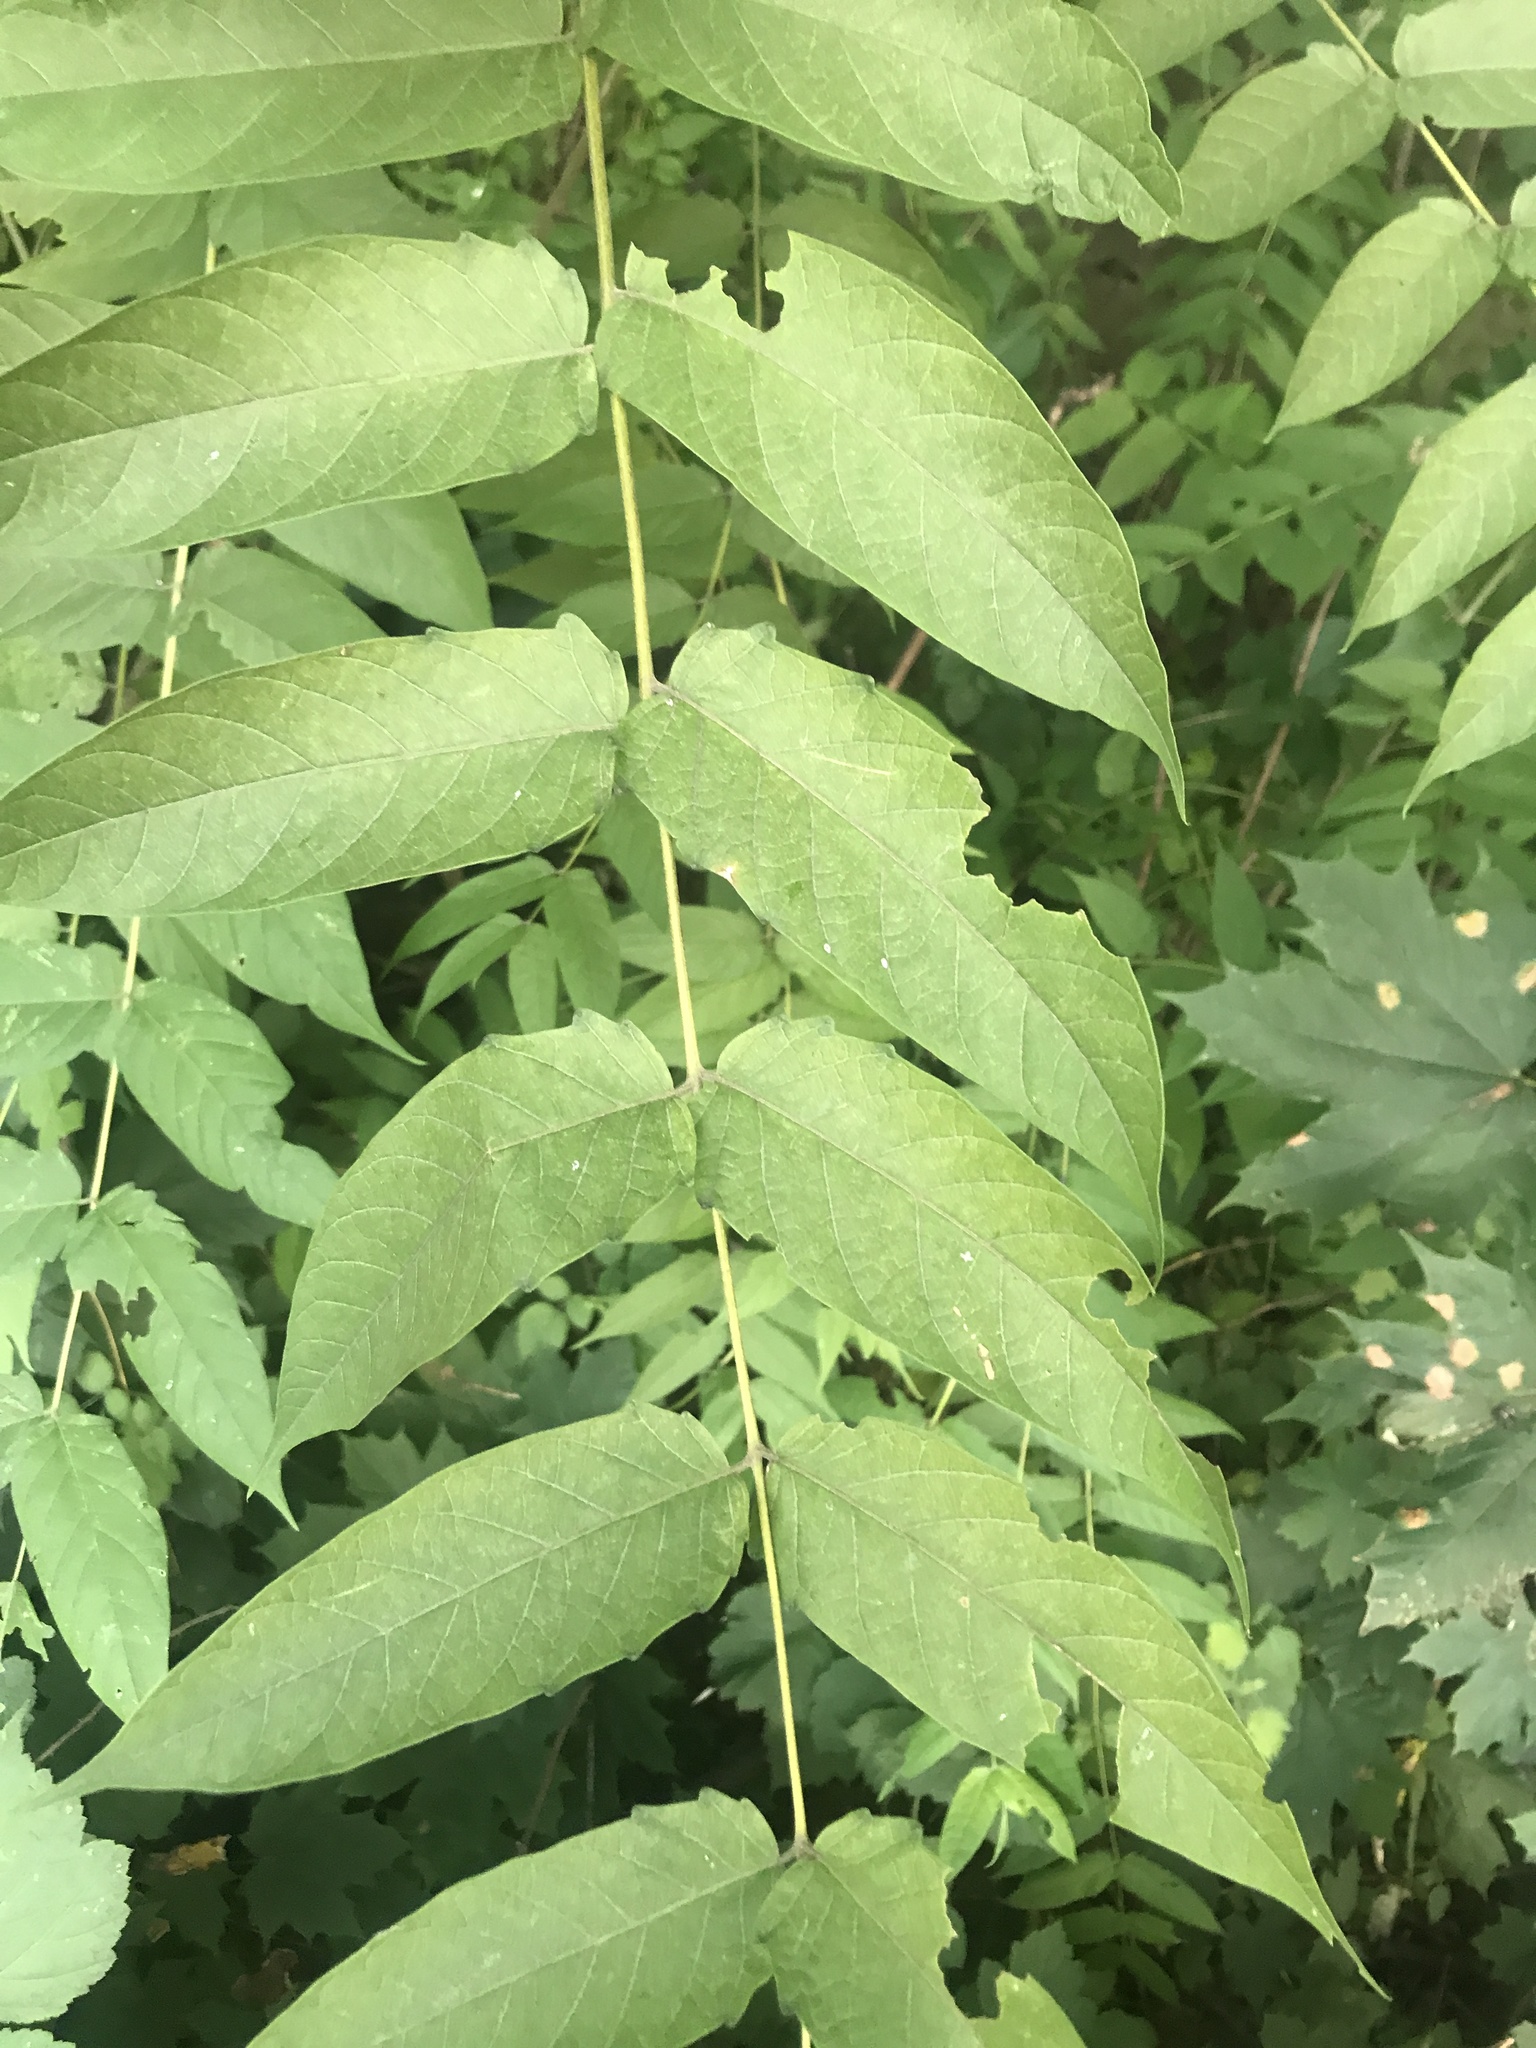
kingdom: Plantae
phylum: Tracheophyta
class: Magnoliopsida
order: Sapindales
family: Simaroubaceae
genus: Ailanthus
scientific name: Ailanthus altissima
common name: Tree-of-heaven
